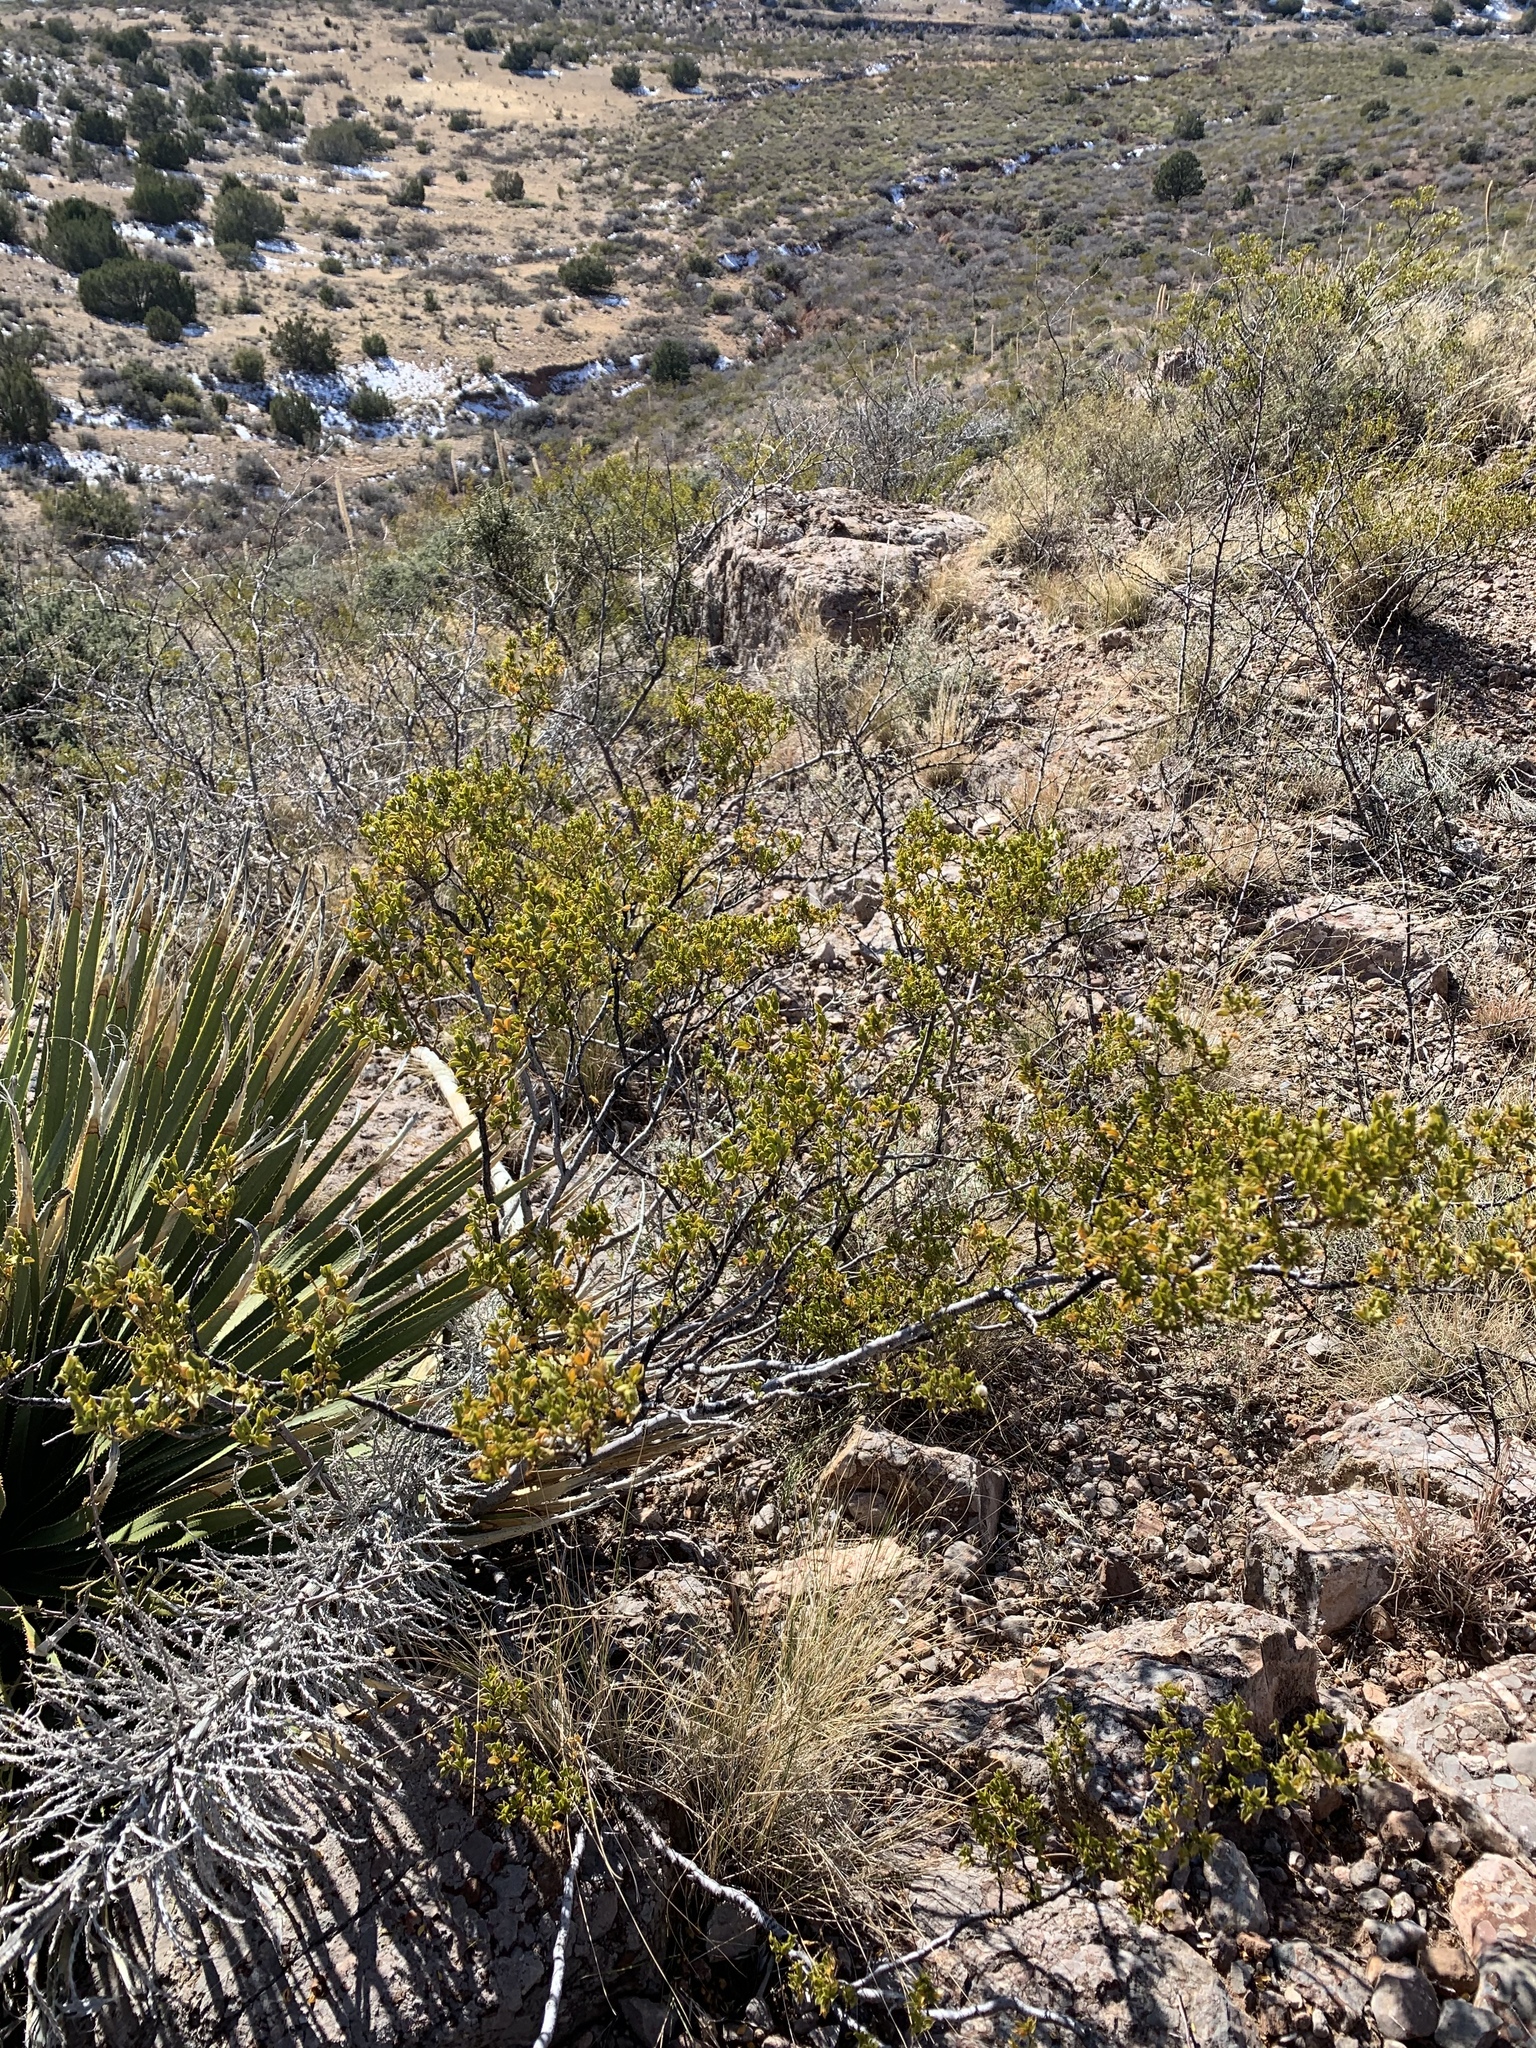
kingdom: Plantae
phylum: Tracheophyta
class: Magnoliopsida
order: Zygophyllales
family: Zygophyllaceae
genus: Larrea
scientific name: Larrea tridentata
